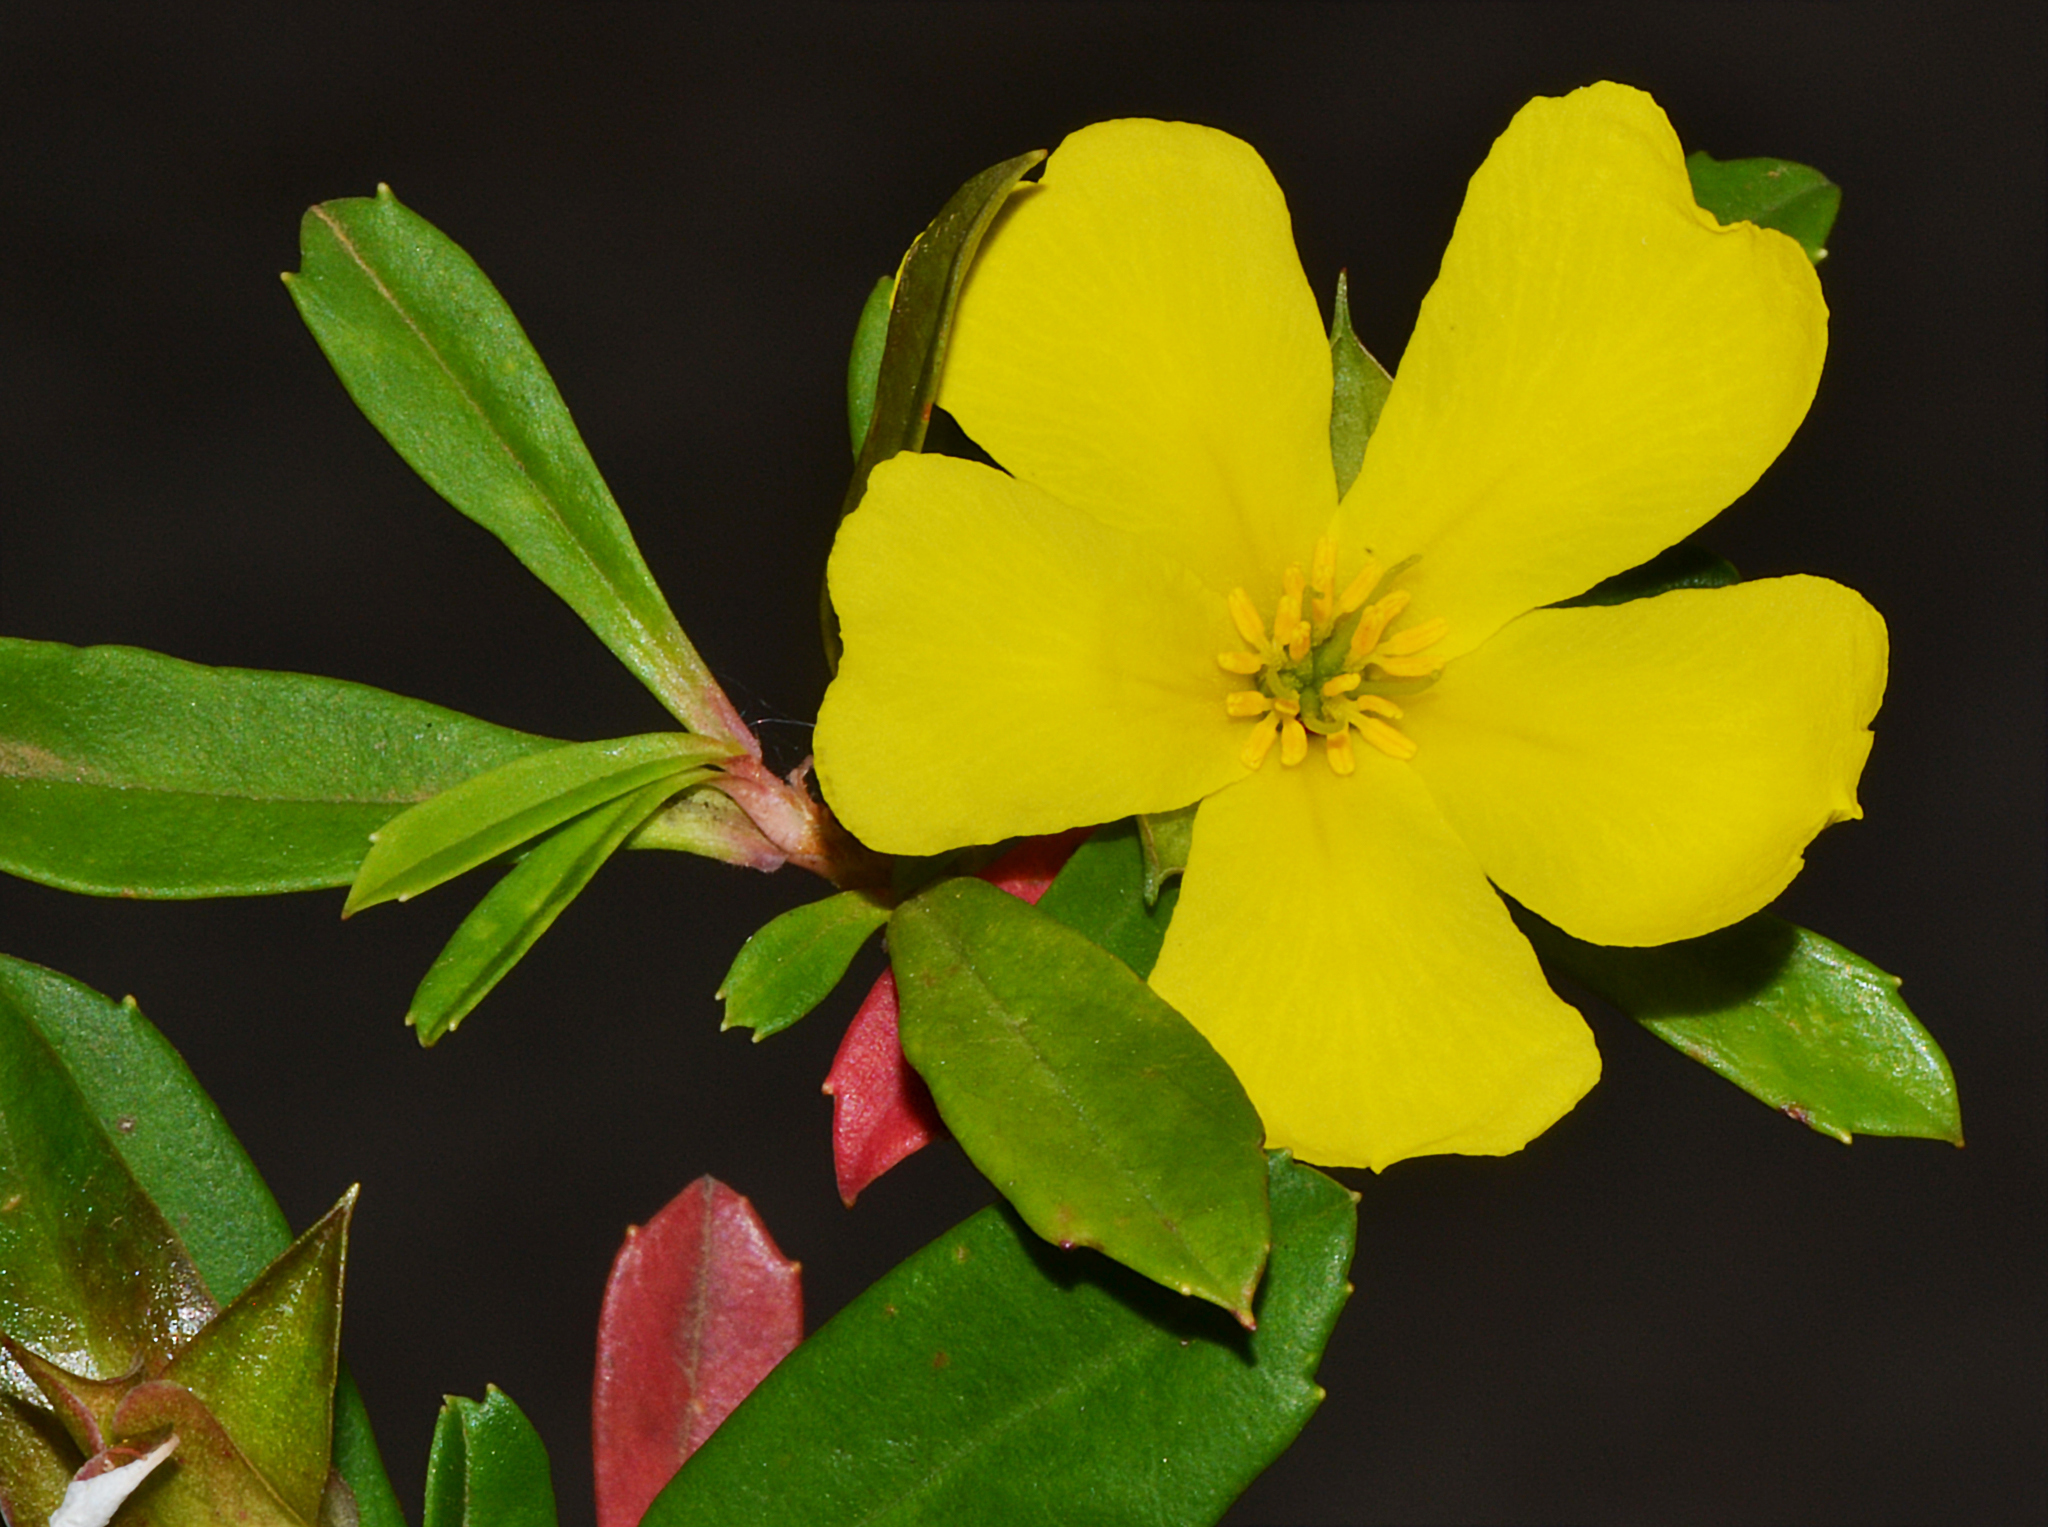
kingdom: Plantae
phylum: Tracheophyta
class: Magnoliopsida
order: Dilleniales
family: Dilleniaceae
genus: Hibbertia
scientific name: Hibbertia cuneiformis
